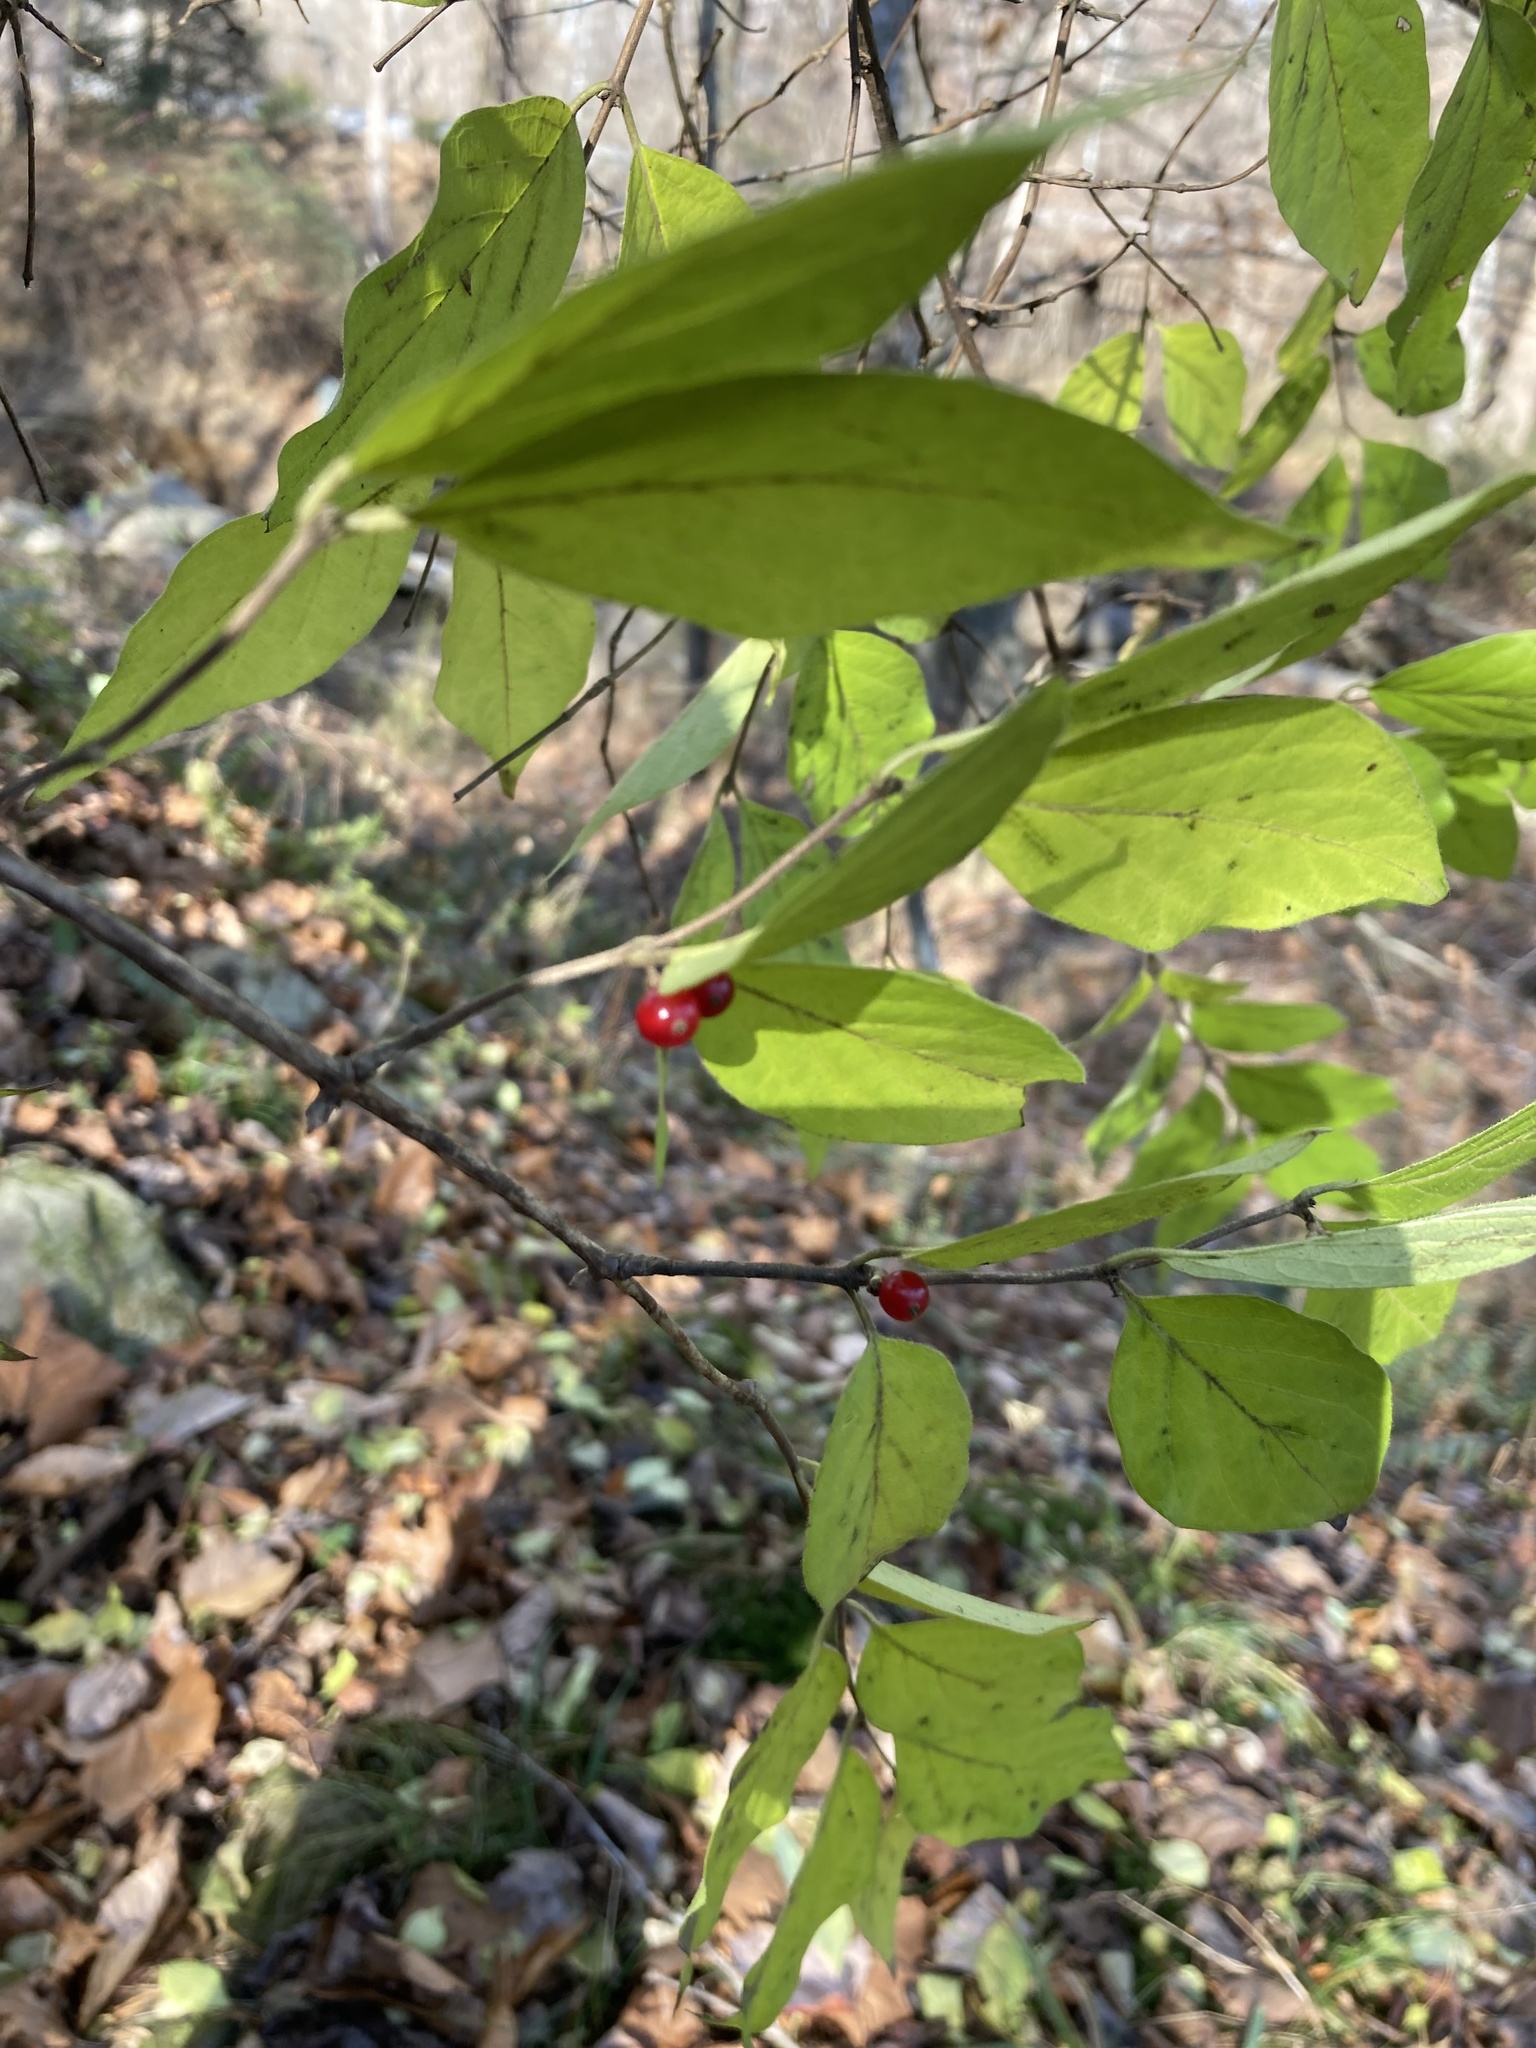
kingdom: Plantae
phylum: Tracheophyta
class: Magnoliopsida
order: Dipsacales
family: Caprifoliaceae
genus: Lonicera
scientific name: Lonicera maackii
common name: Amur honeysuckle
